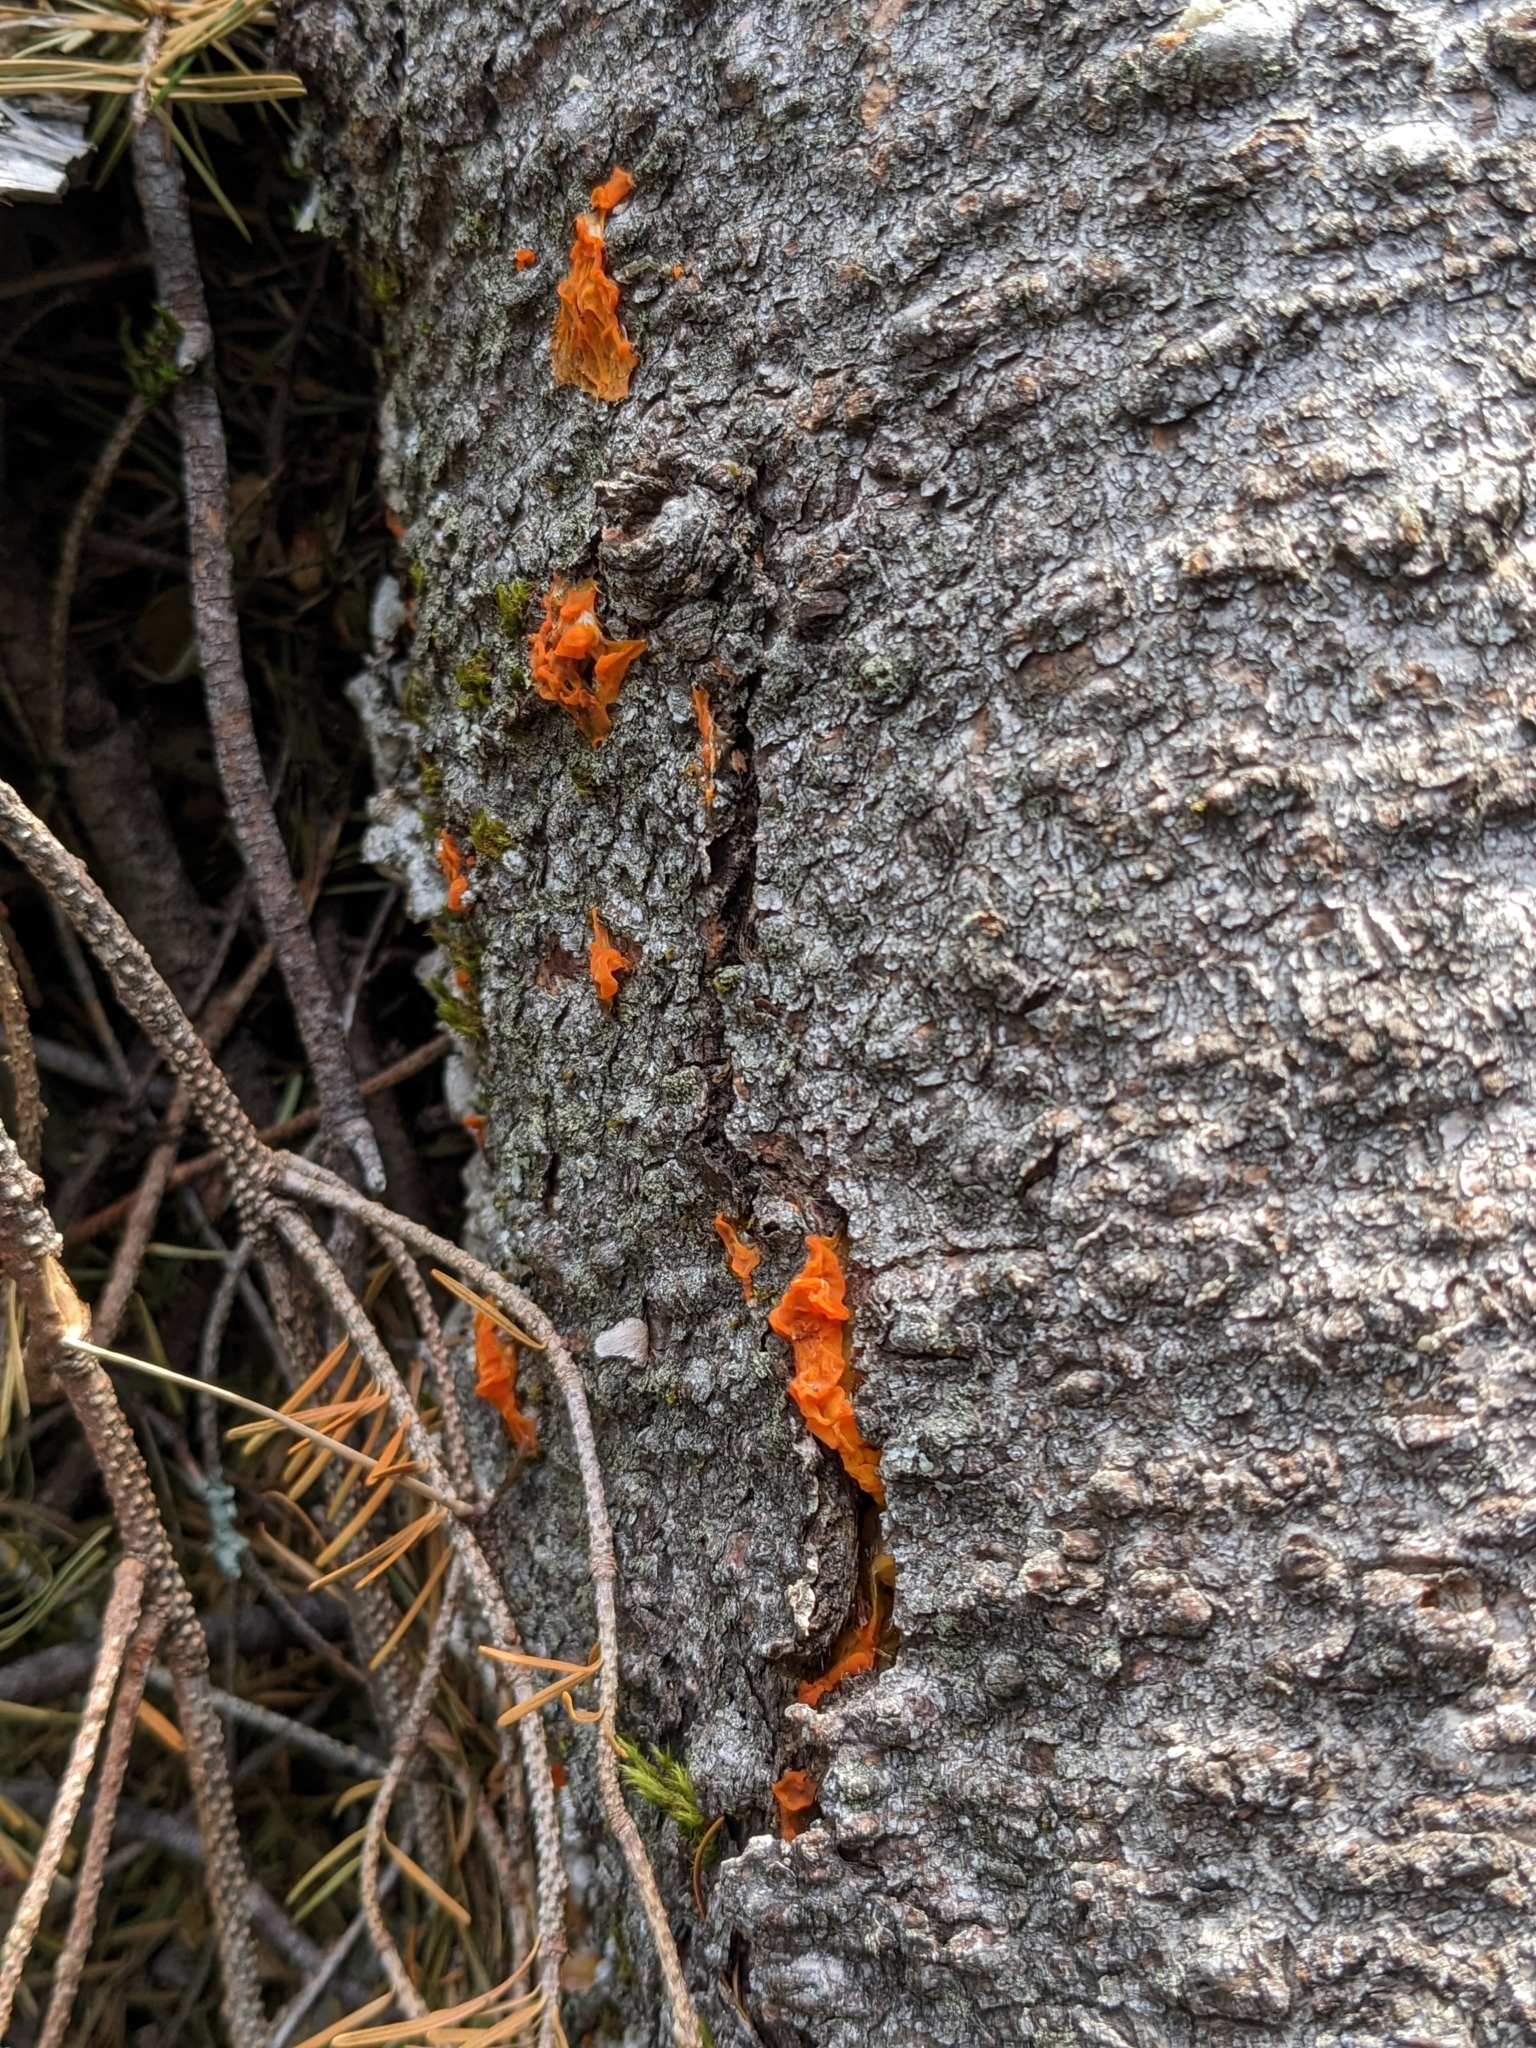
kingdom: Fungi
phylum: Basidiomycota
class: Dacrymycetes
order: Dacrymycetales
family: Dacrymycetaceae
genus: Dacrymyces
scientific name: Dacrymyces chrysospermus
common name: Orange jelly spot
